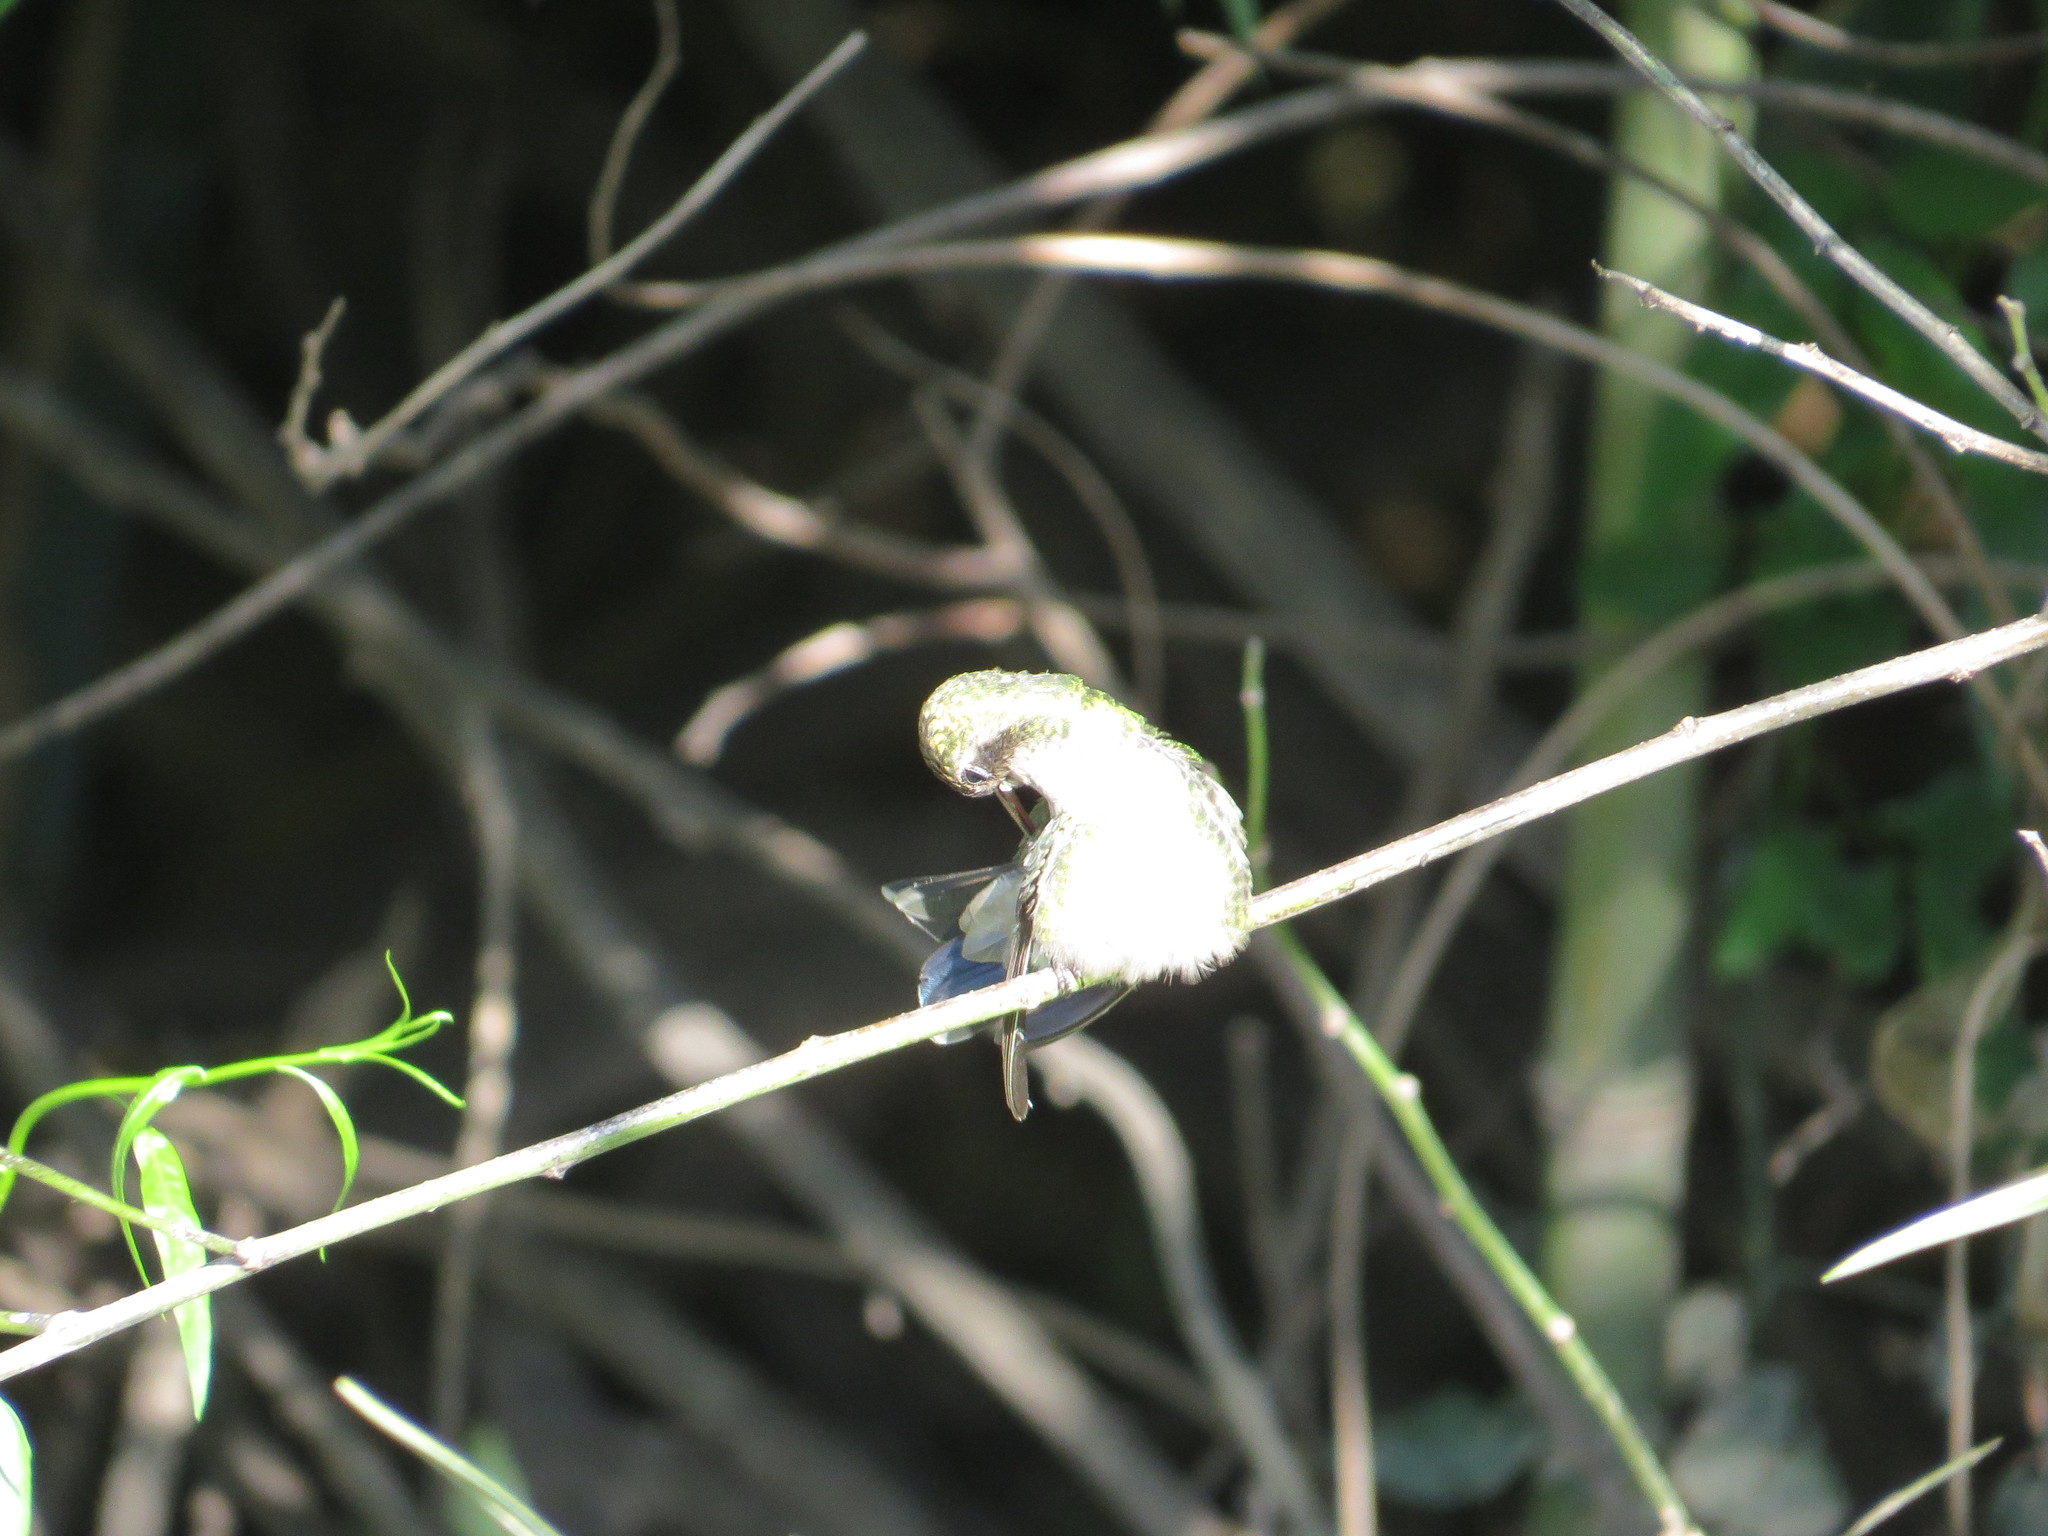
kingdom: Animalia
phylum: Chordata
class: Aves
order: Apodiformes
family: Trochilidae
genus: Chlorostilbon
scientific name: Chlorostilbon lucidus
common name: Glittering-bellied emerald
